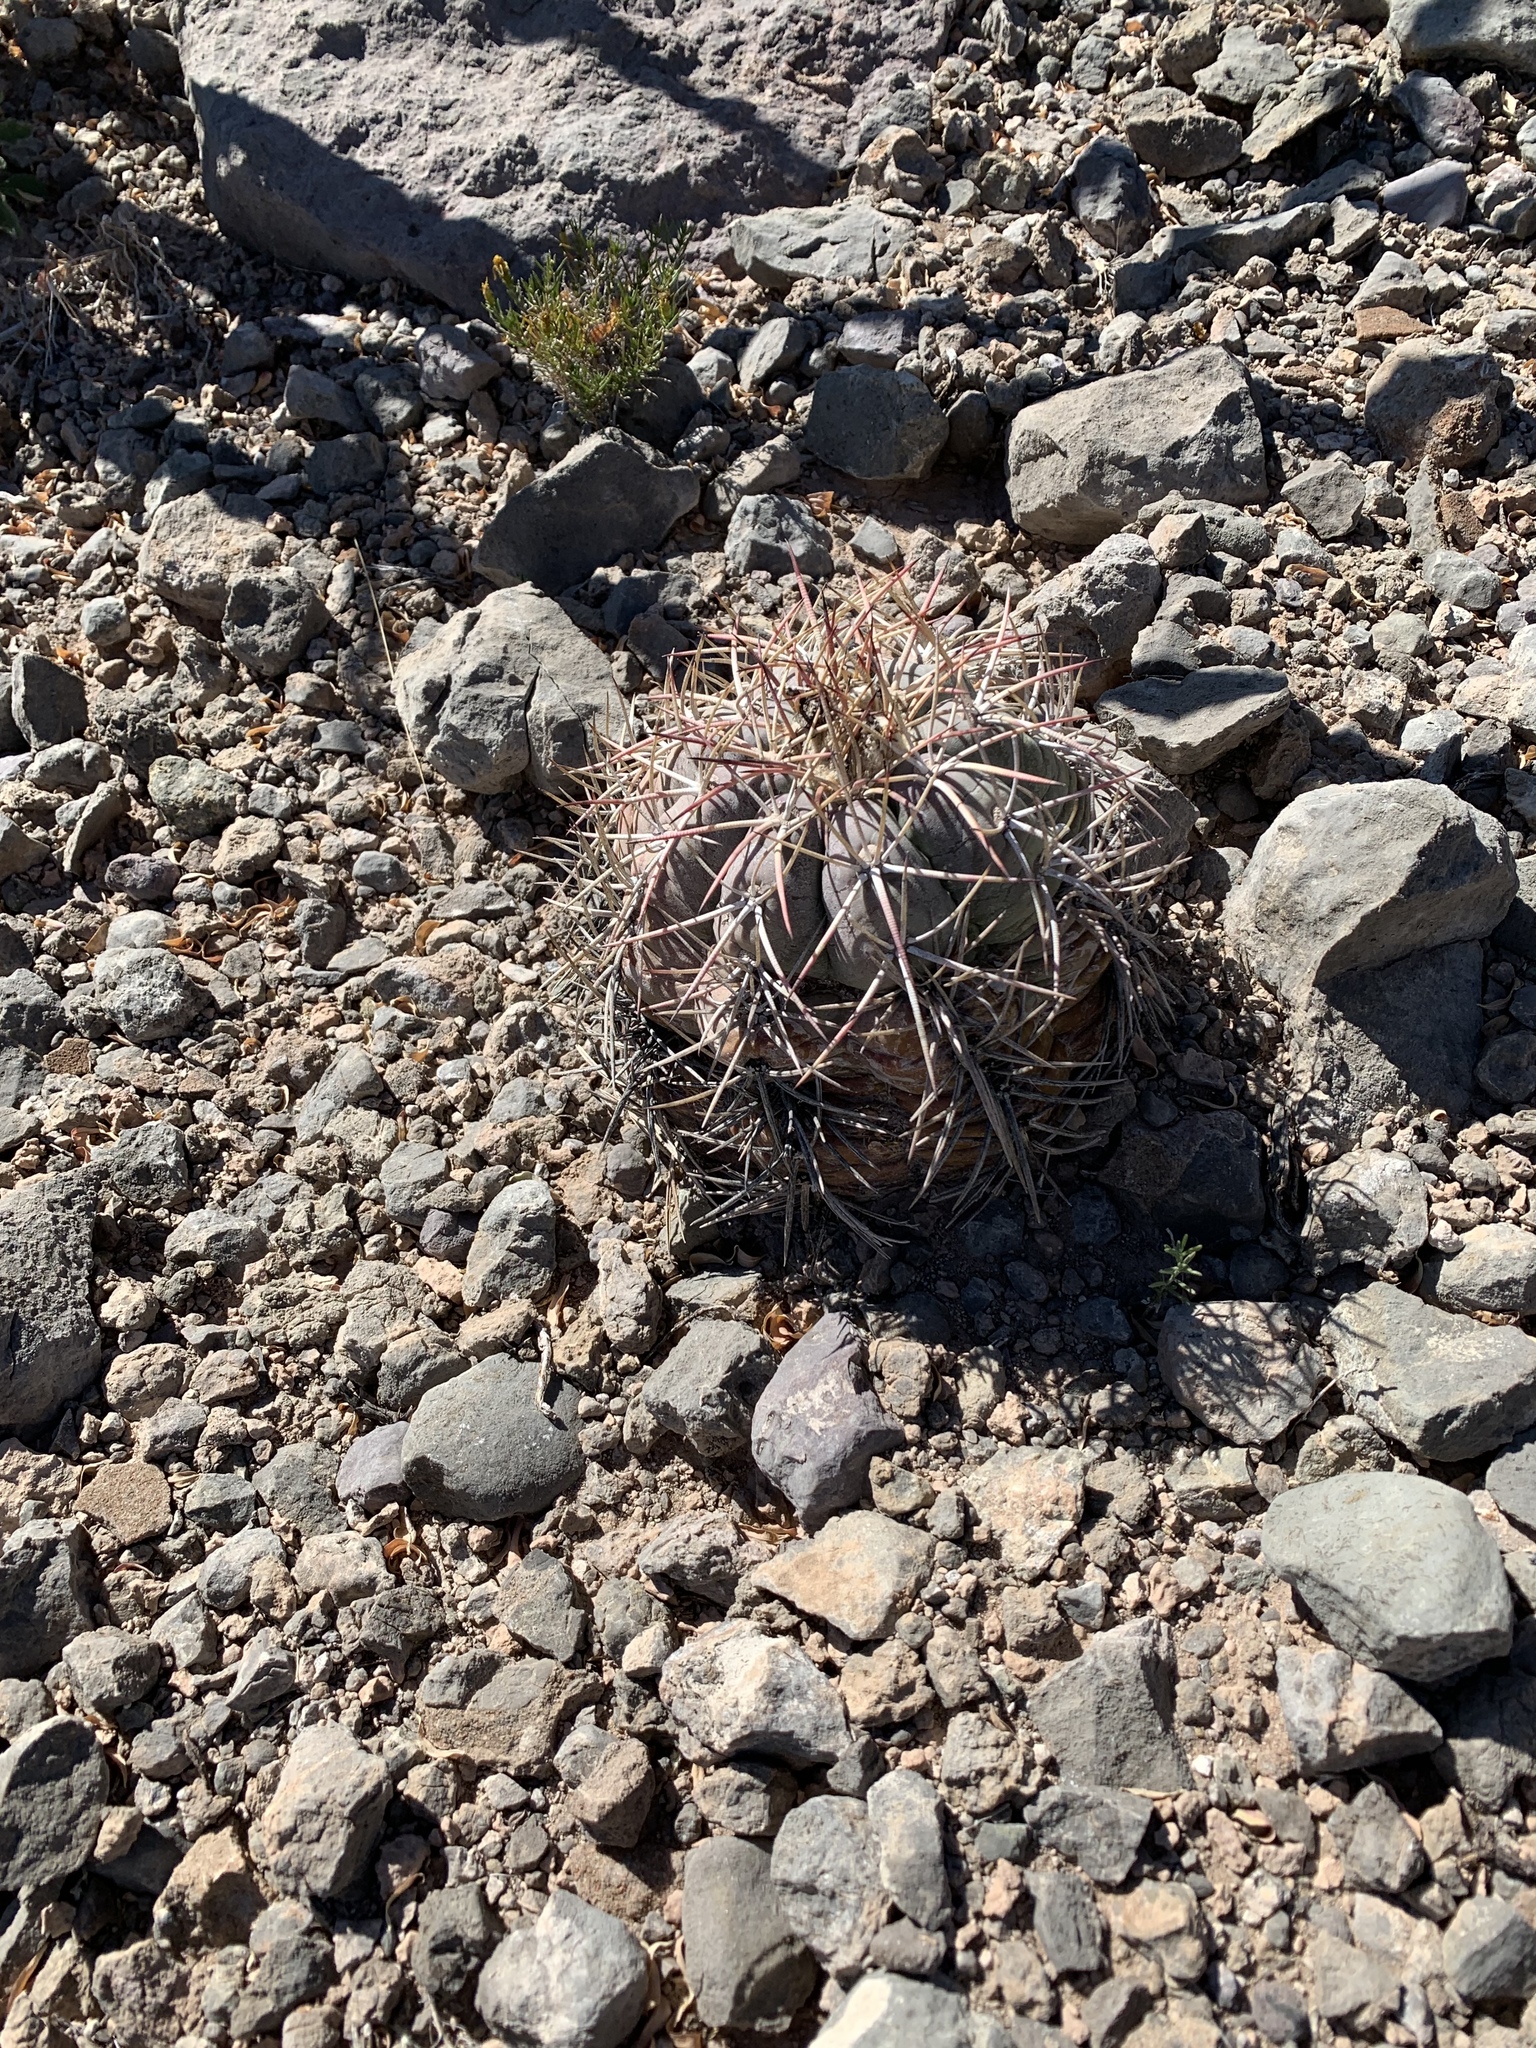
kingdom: Plantae
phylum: Tracheophyta
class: Magnoliopsida
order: Caryophyllales
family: Cactaceae
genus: Echinocactus
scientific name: Echinocactus horizonthalonius
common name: Devilshead
